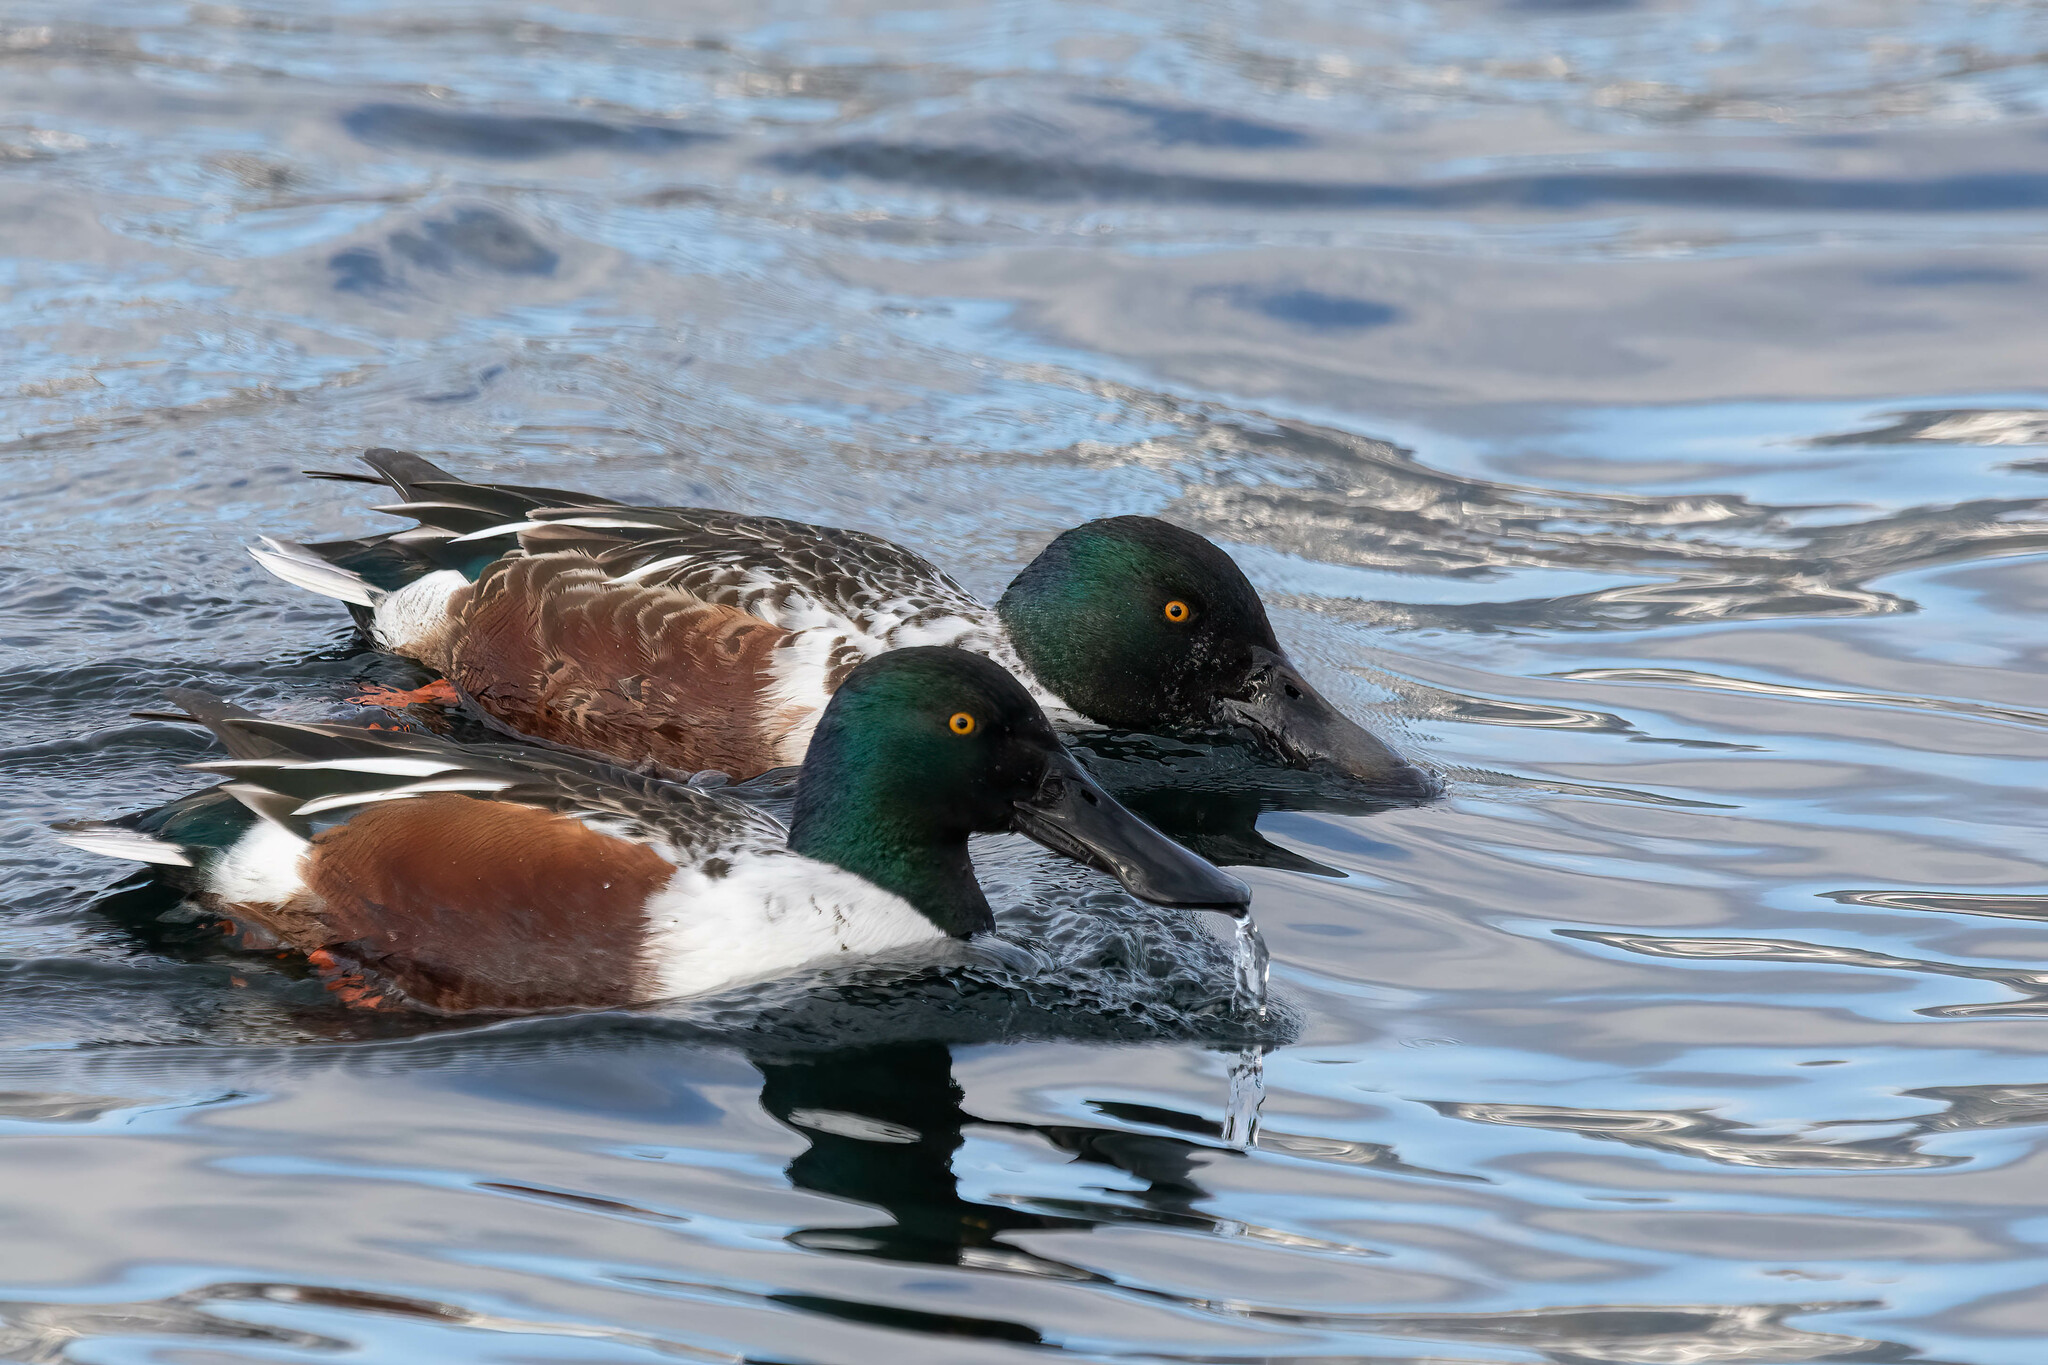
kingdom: Animalia
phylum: Chordata
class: Aves
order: Anseriformes
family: Anatidae
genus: Spatula
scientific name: Spatula clypeata
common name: Northern shoveler
